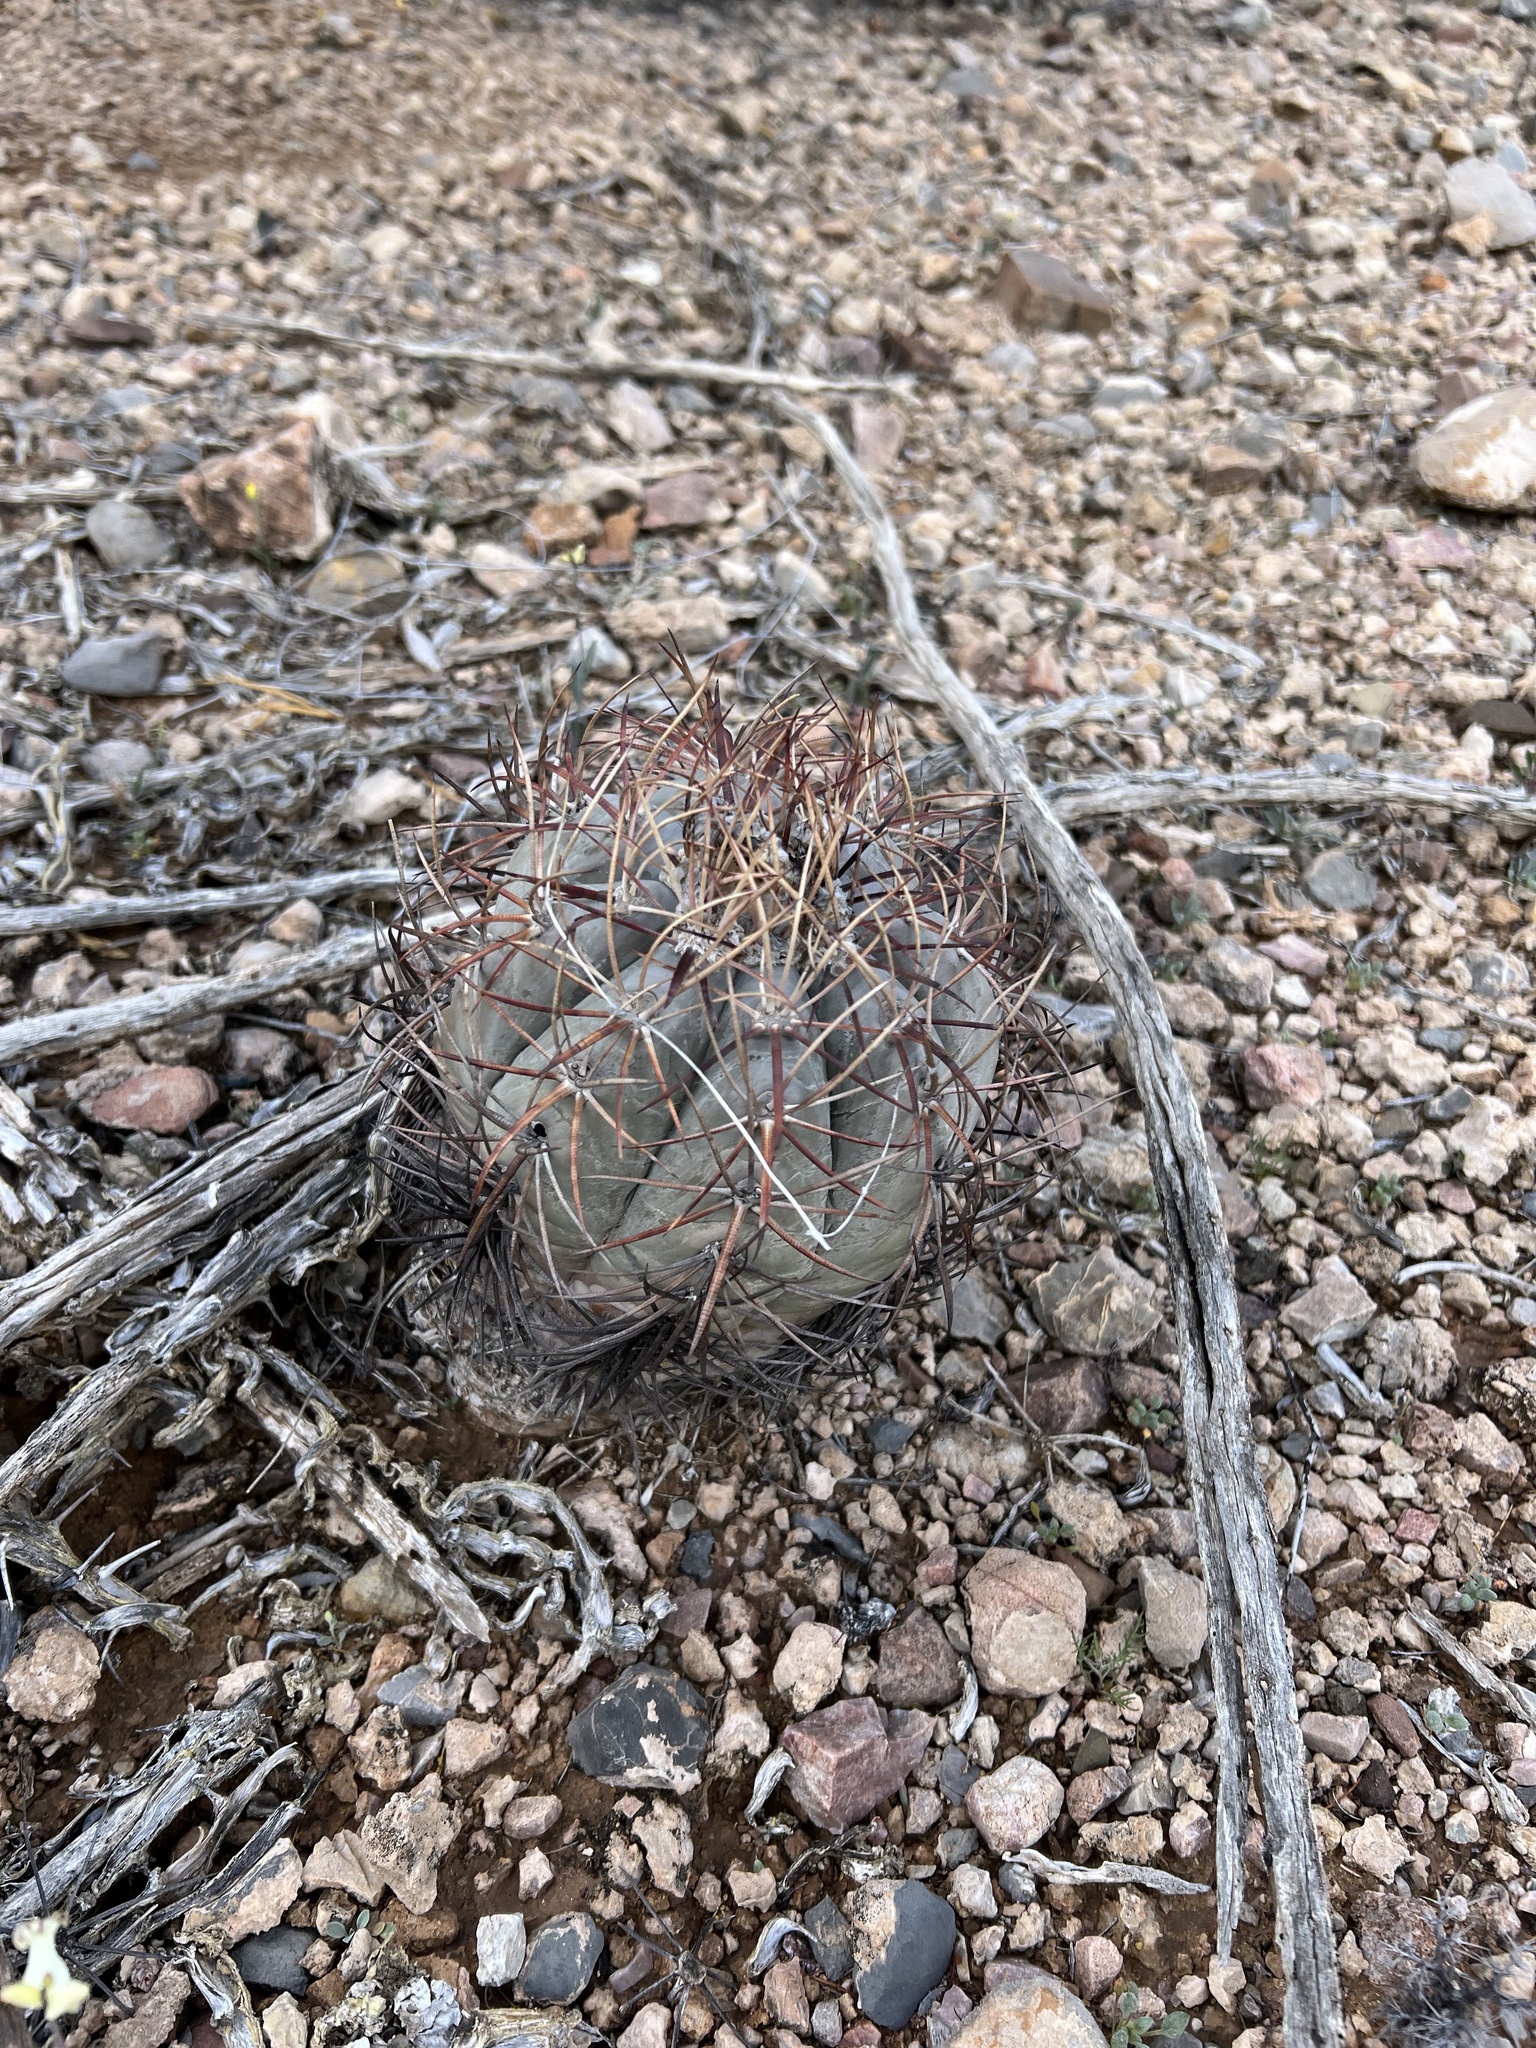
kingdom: Plantae
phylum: Tracheophyta
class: Magnoliopsida
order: Caryophyllales
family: Cactaceae
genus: Echinocactus
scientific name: Echinocactus horizonthalonius
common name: Devilshead
